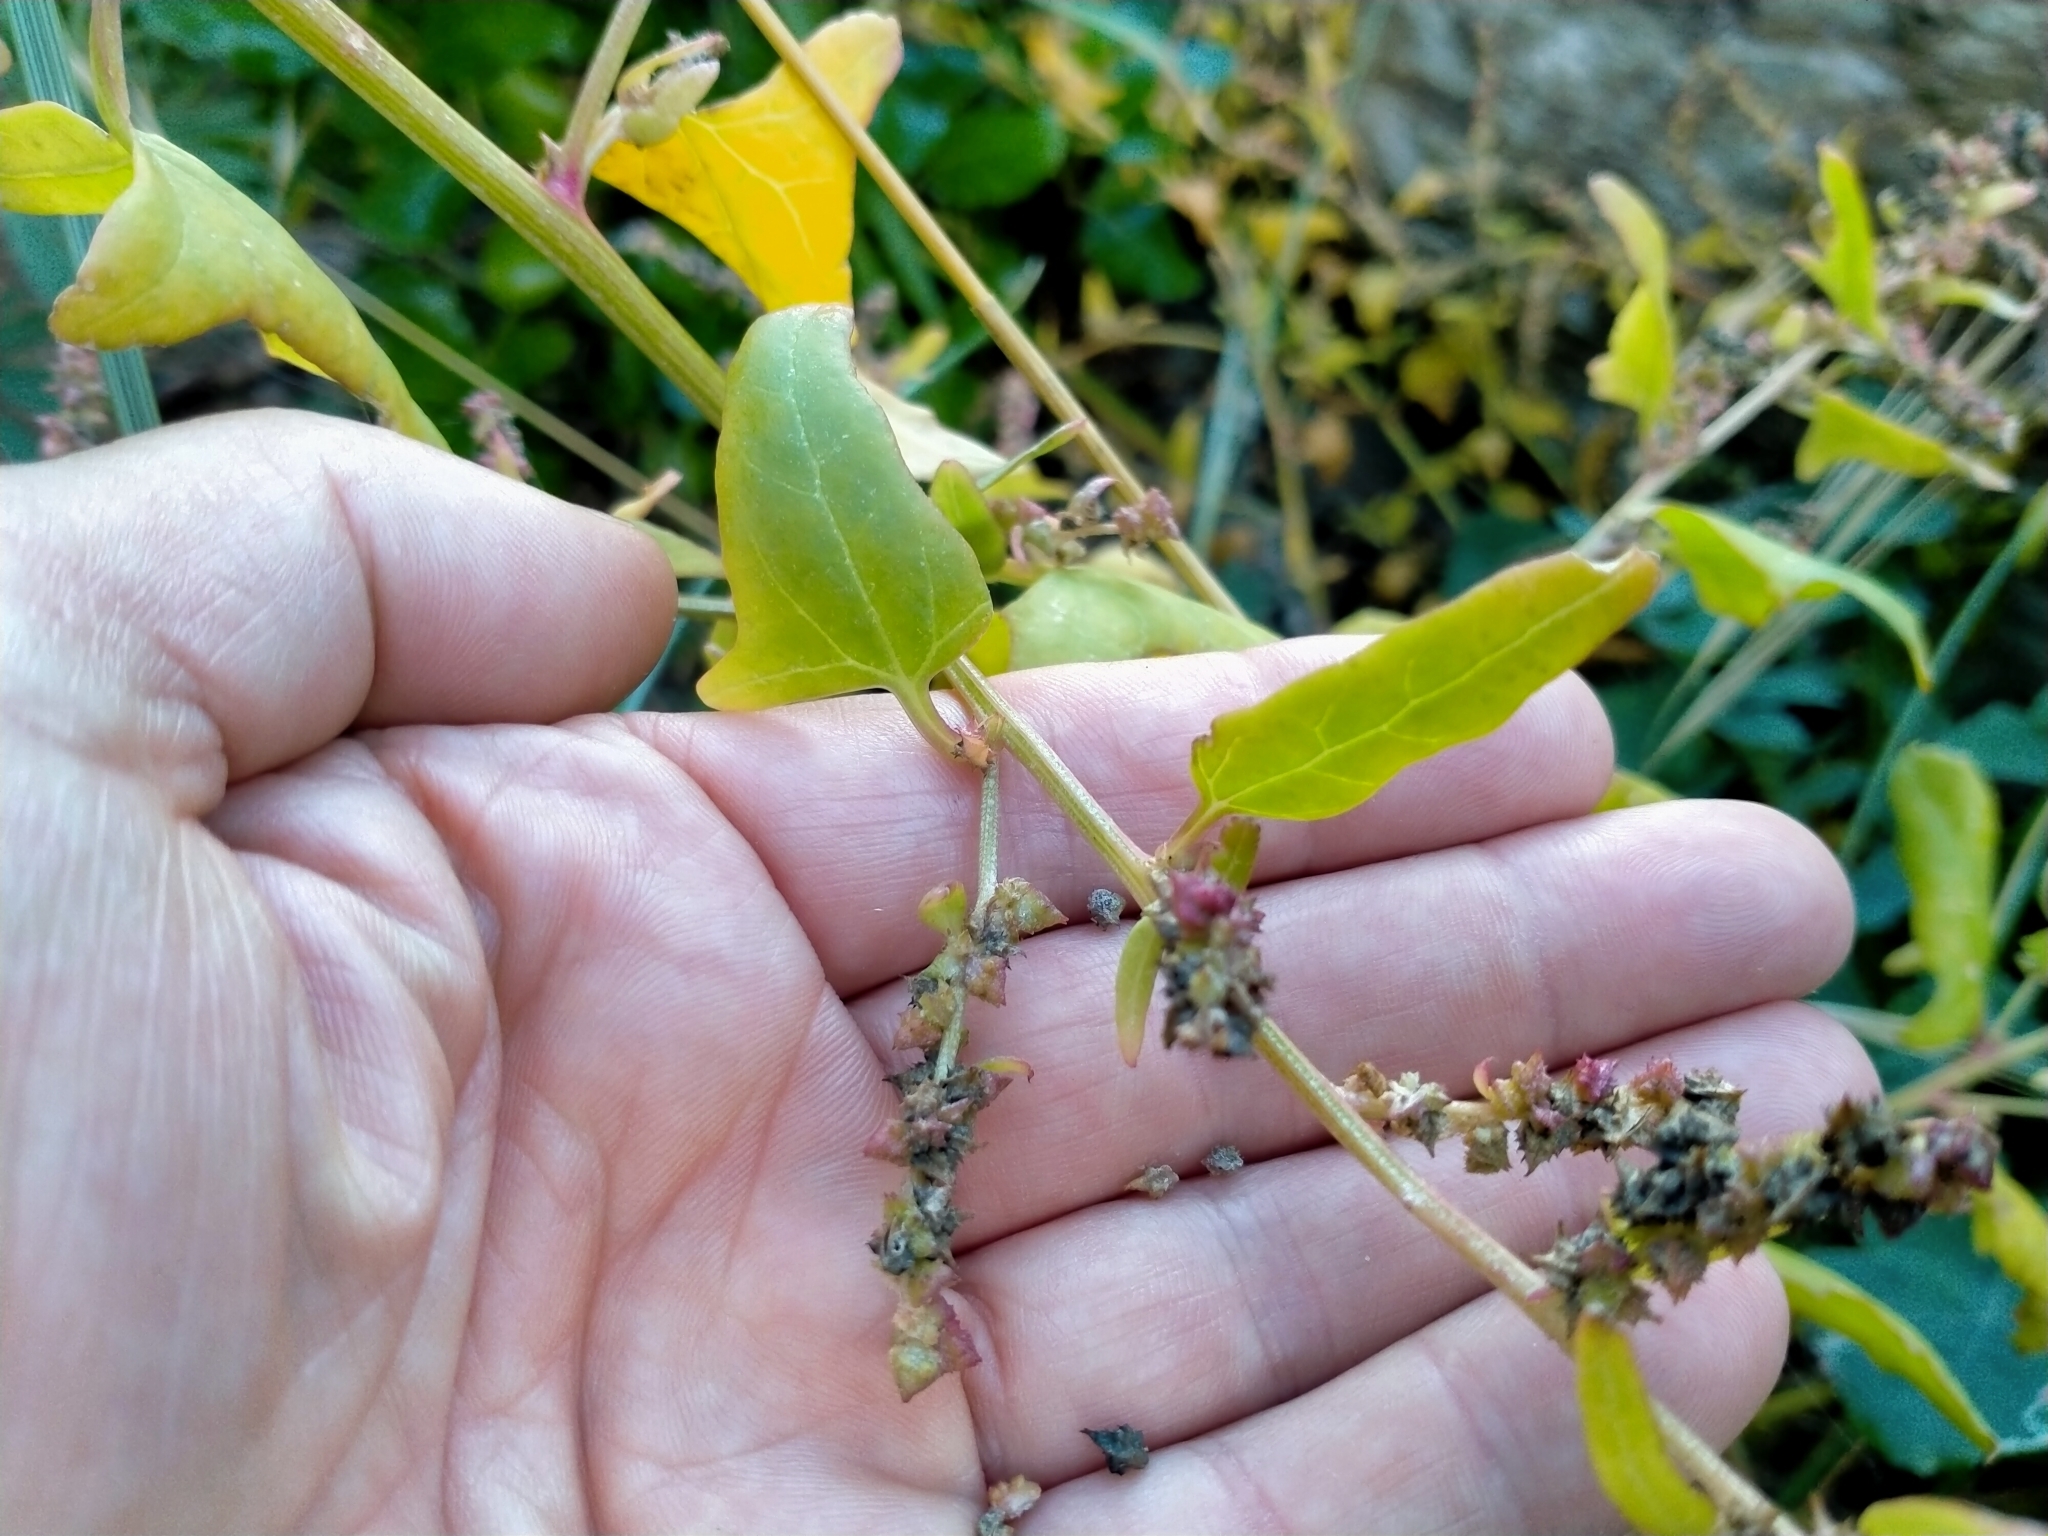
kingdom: Plantae
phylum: Tracheophyta
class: Magnoliopsida
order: Caryophyllales
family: Amaranthaceae
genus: Atriplex
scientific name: Atriplex prostrata
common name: Spear-leaved orache
